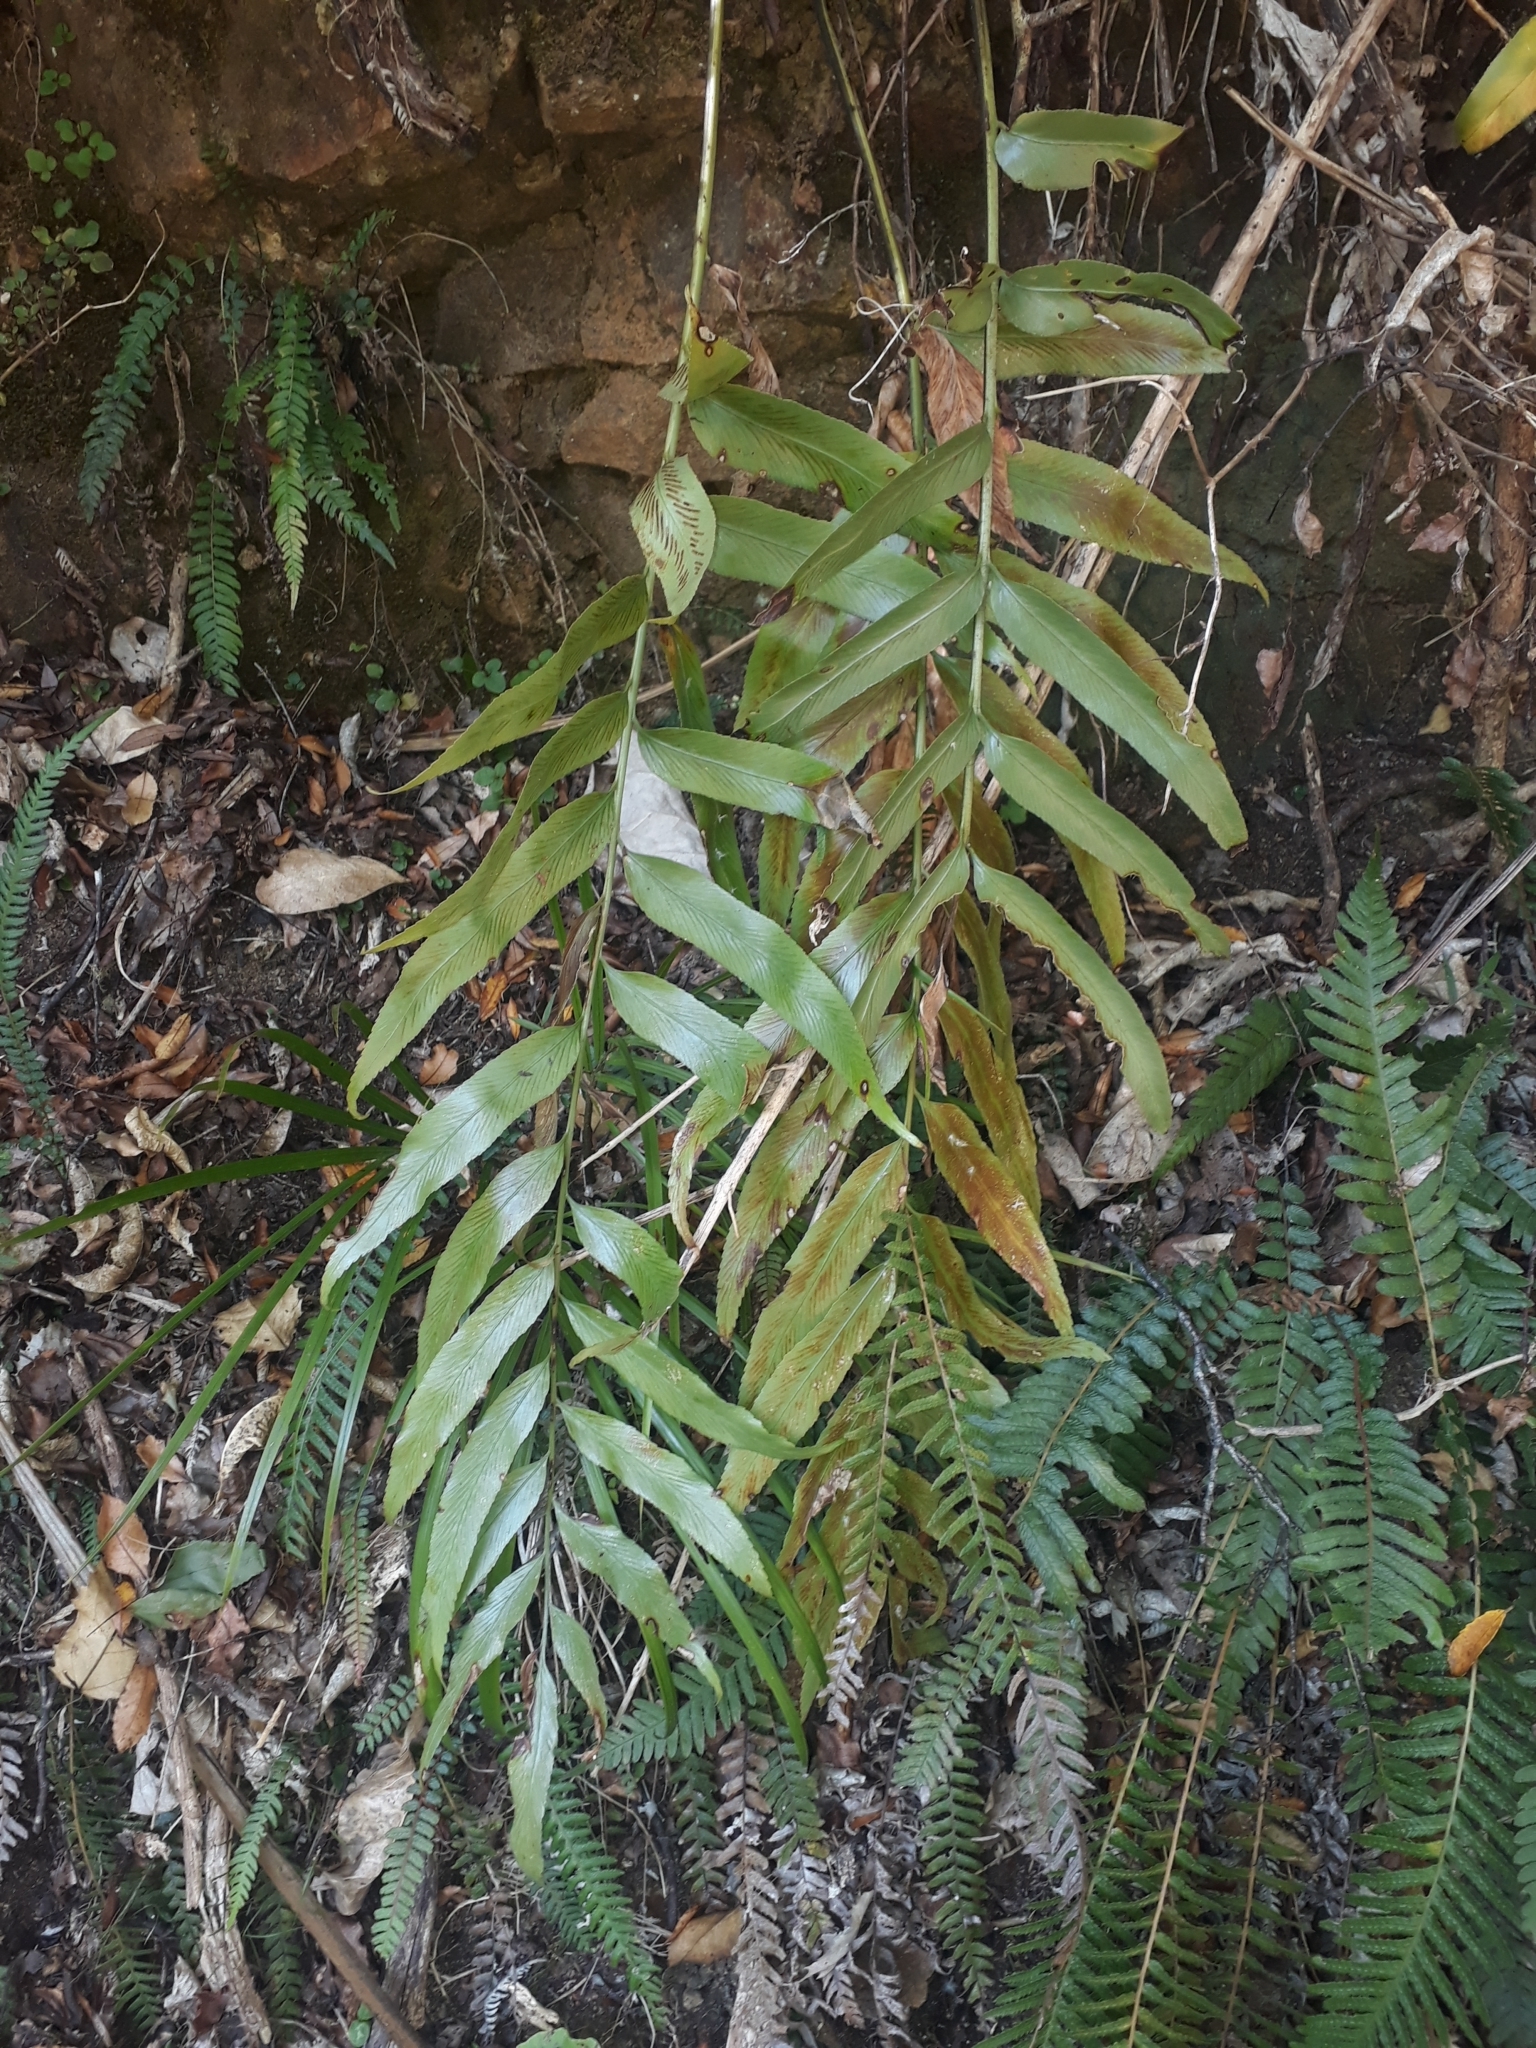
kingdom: Plantae
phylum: Tracheophyta
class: Polypodiopsida
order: Polypodiales
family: Aspleniaceae
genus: Asplenium
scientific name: Asplenium oblongifolium
